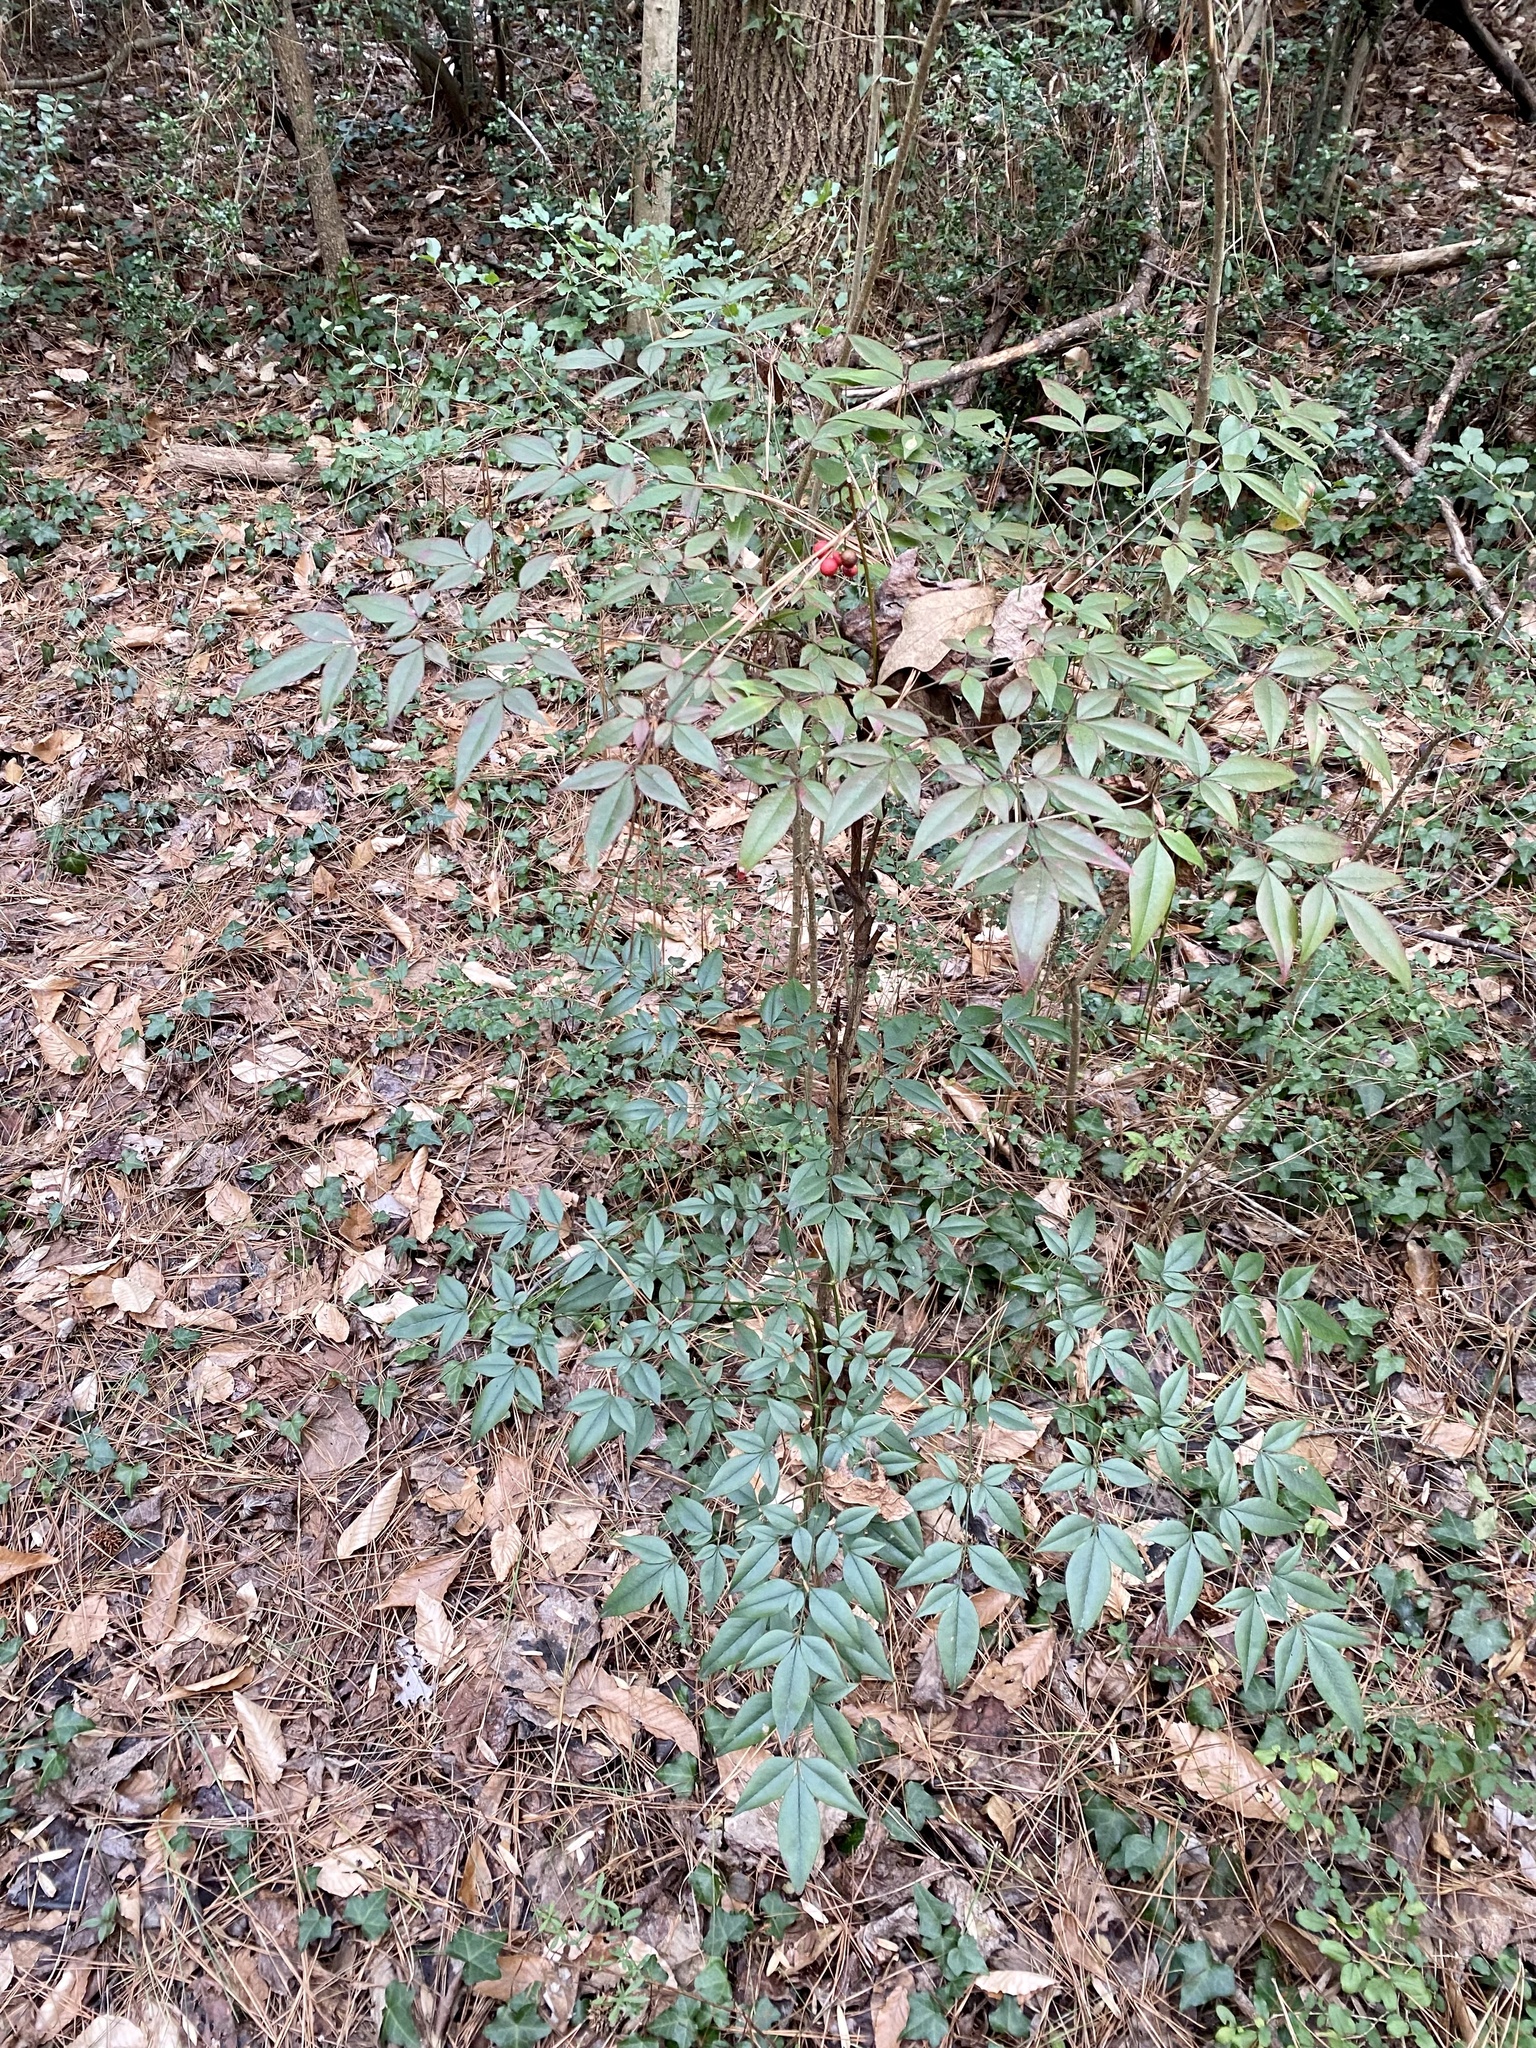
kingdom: Plantae
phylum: Tracheophyta
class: Magnoliopsida
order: Ranunculales
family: Berberidaceae
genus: Nandina
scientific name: Nandina domestica
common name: Sacred bamboo
